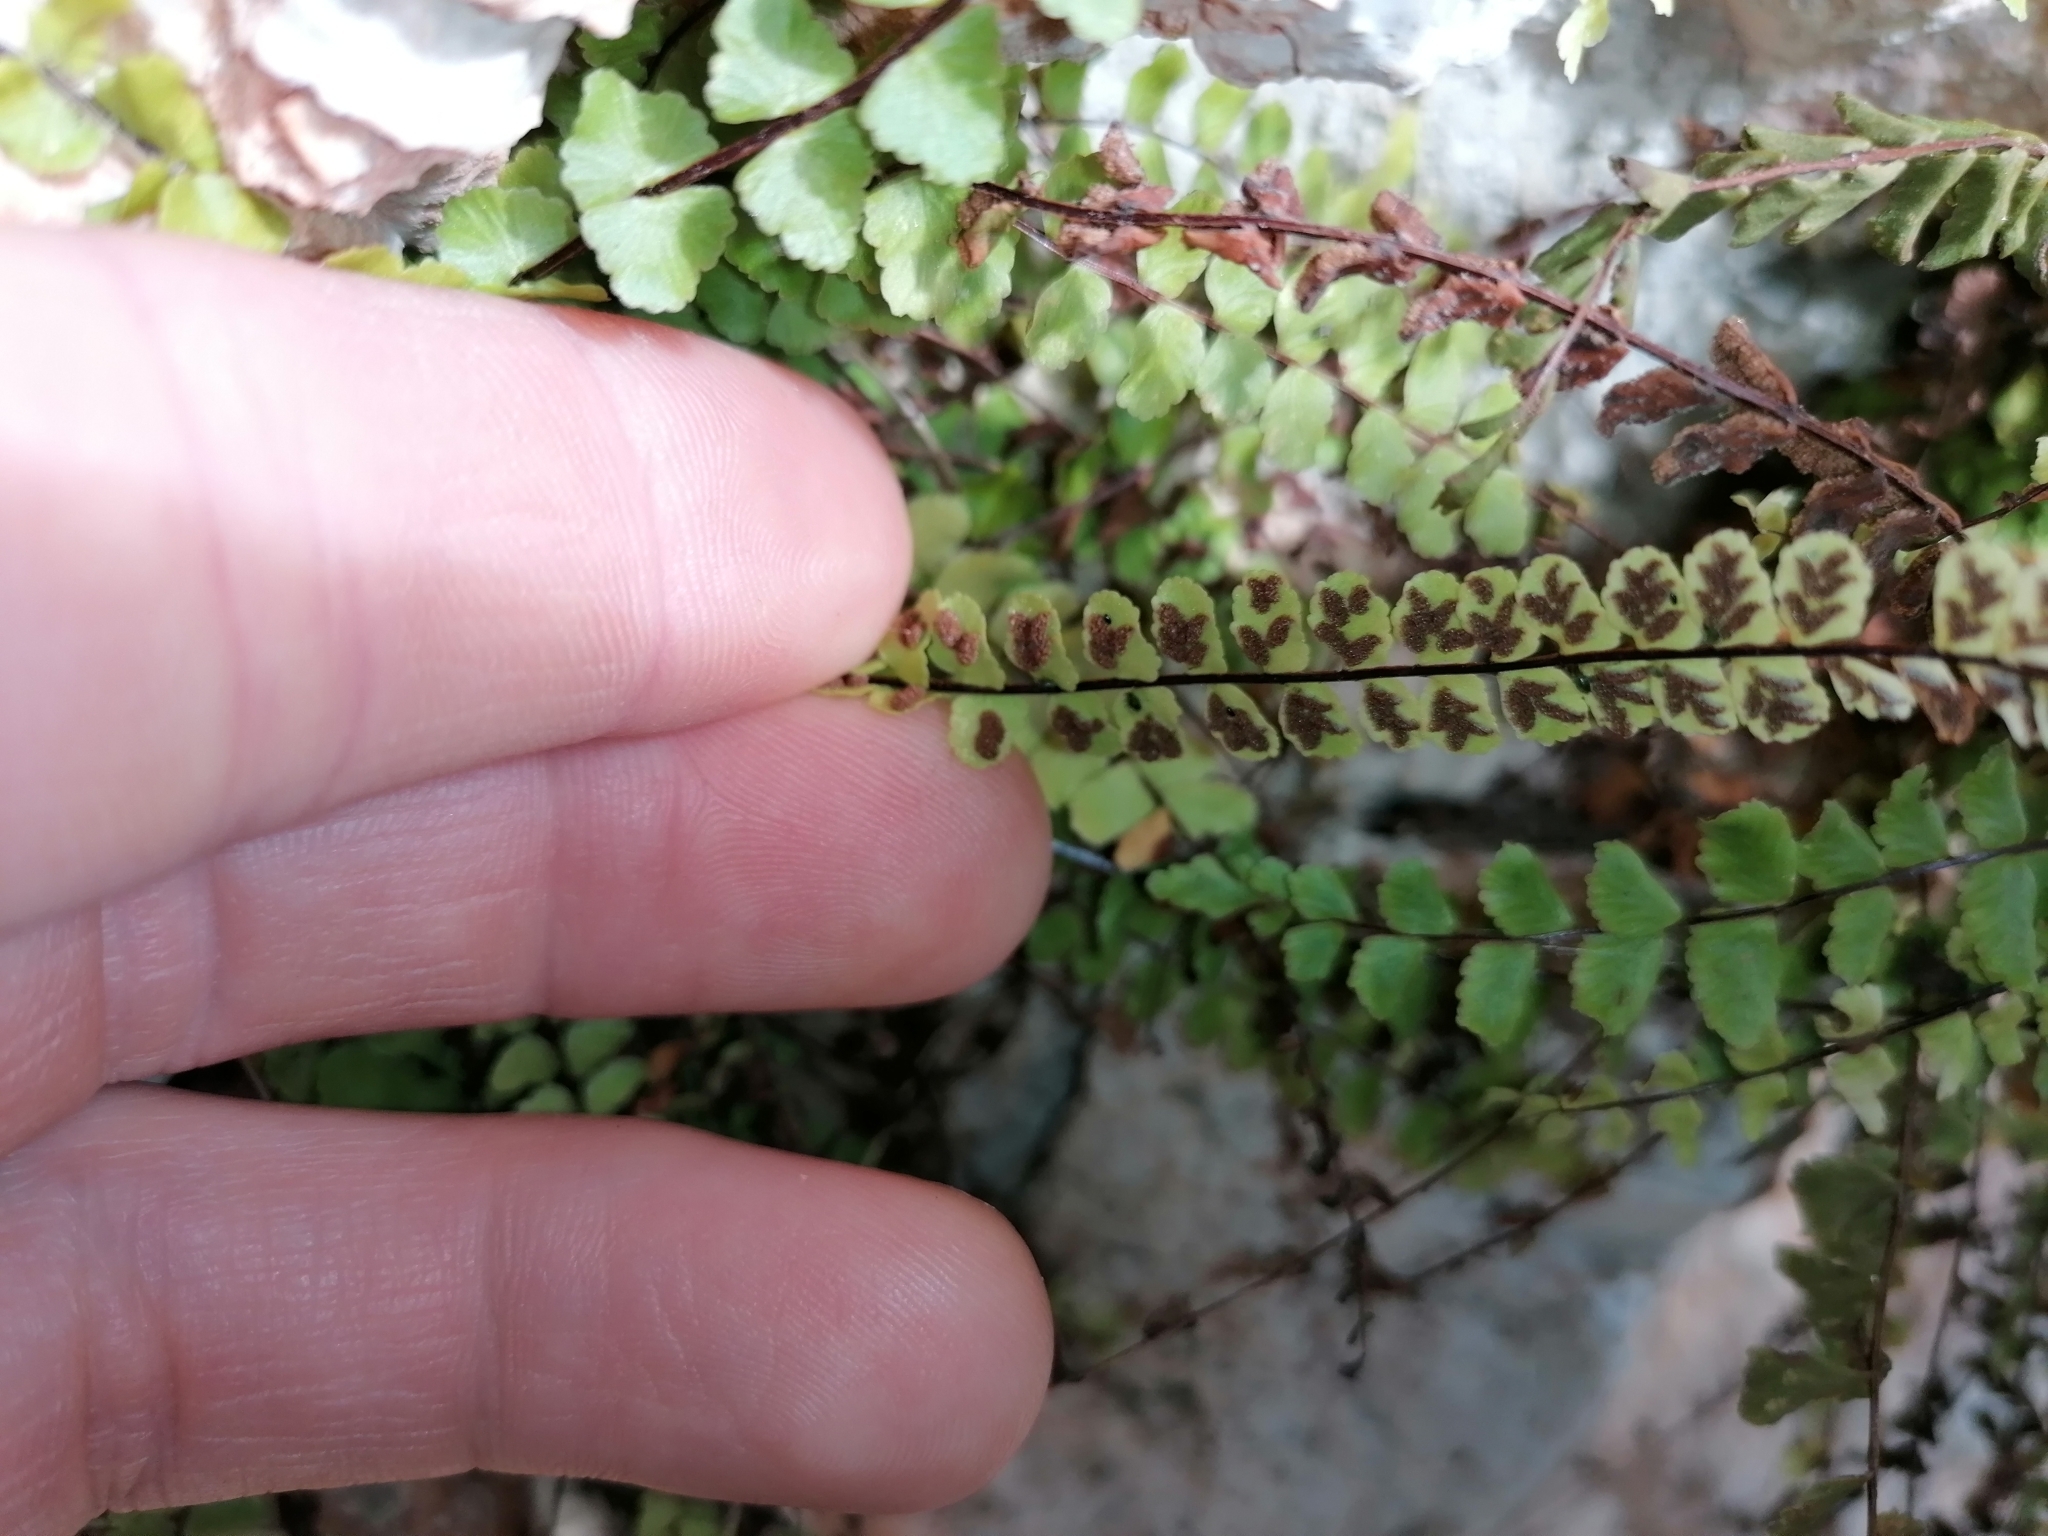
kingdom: Plantae
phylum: Tracheophyta
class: Polypodiopsida
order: Polypodiales
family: Aspleniaceae
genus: Asplenium
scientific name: Asplenium trichomanes
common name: Maidenhair spleenwort
